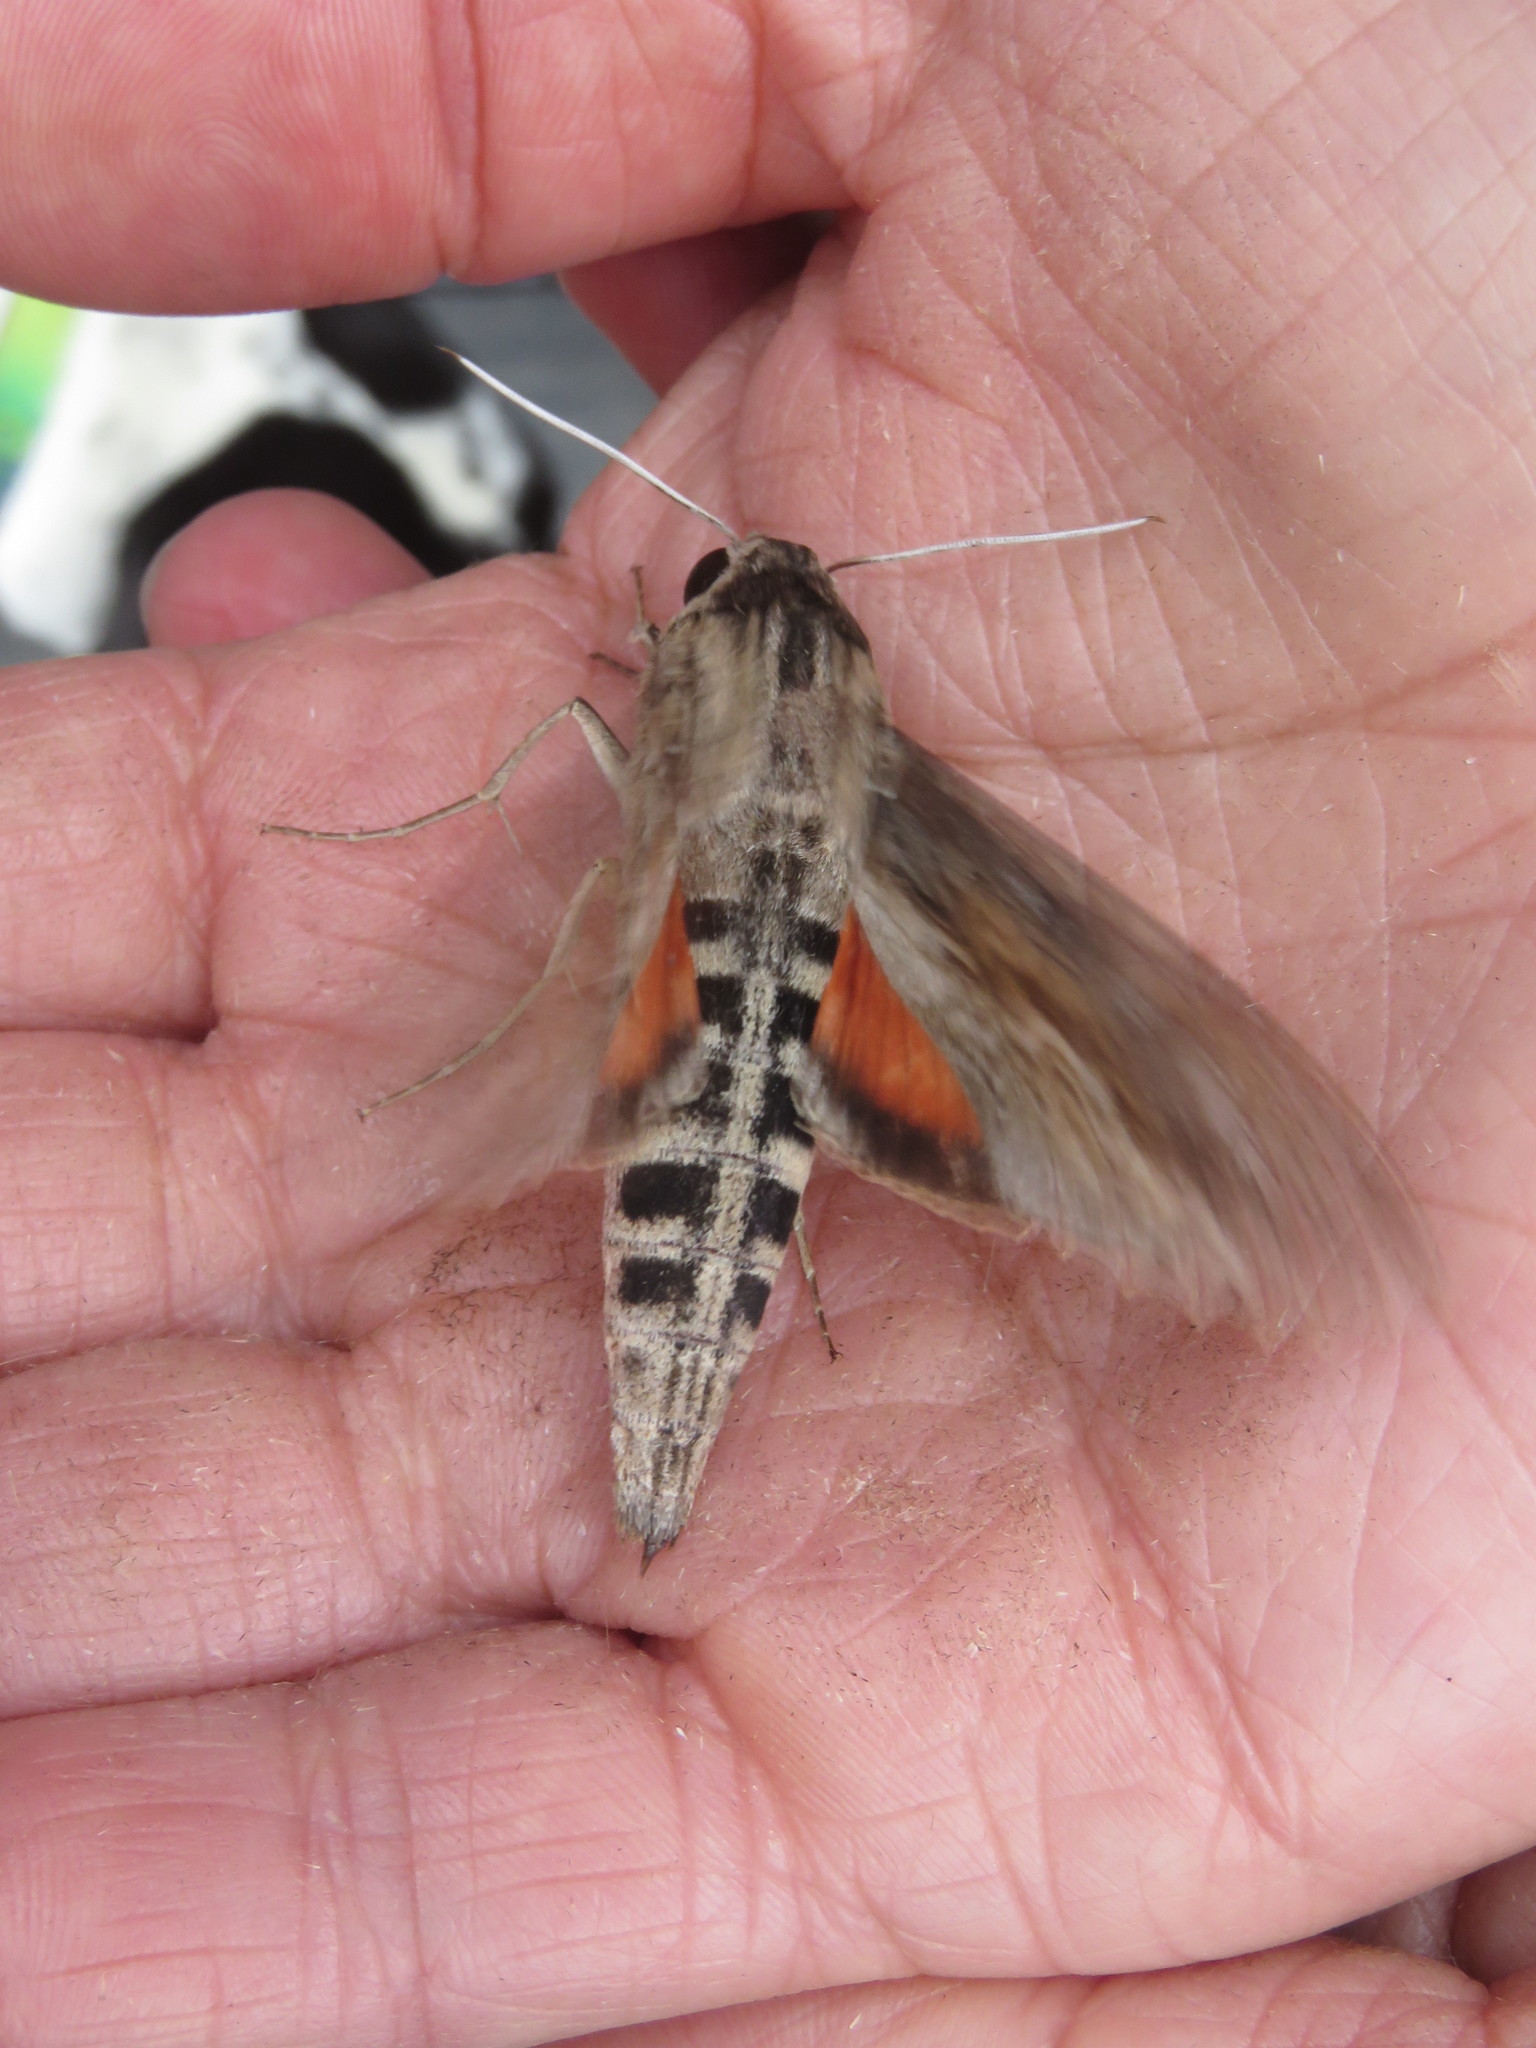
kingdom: Animalia
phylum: Arthropoda
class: Insecta
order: Lepidoptera
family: Sphingidae
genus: Erinnyis
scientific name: Erinnyis ello
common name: Ello sphinx
